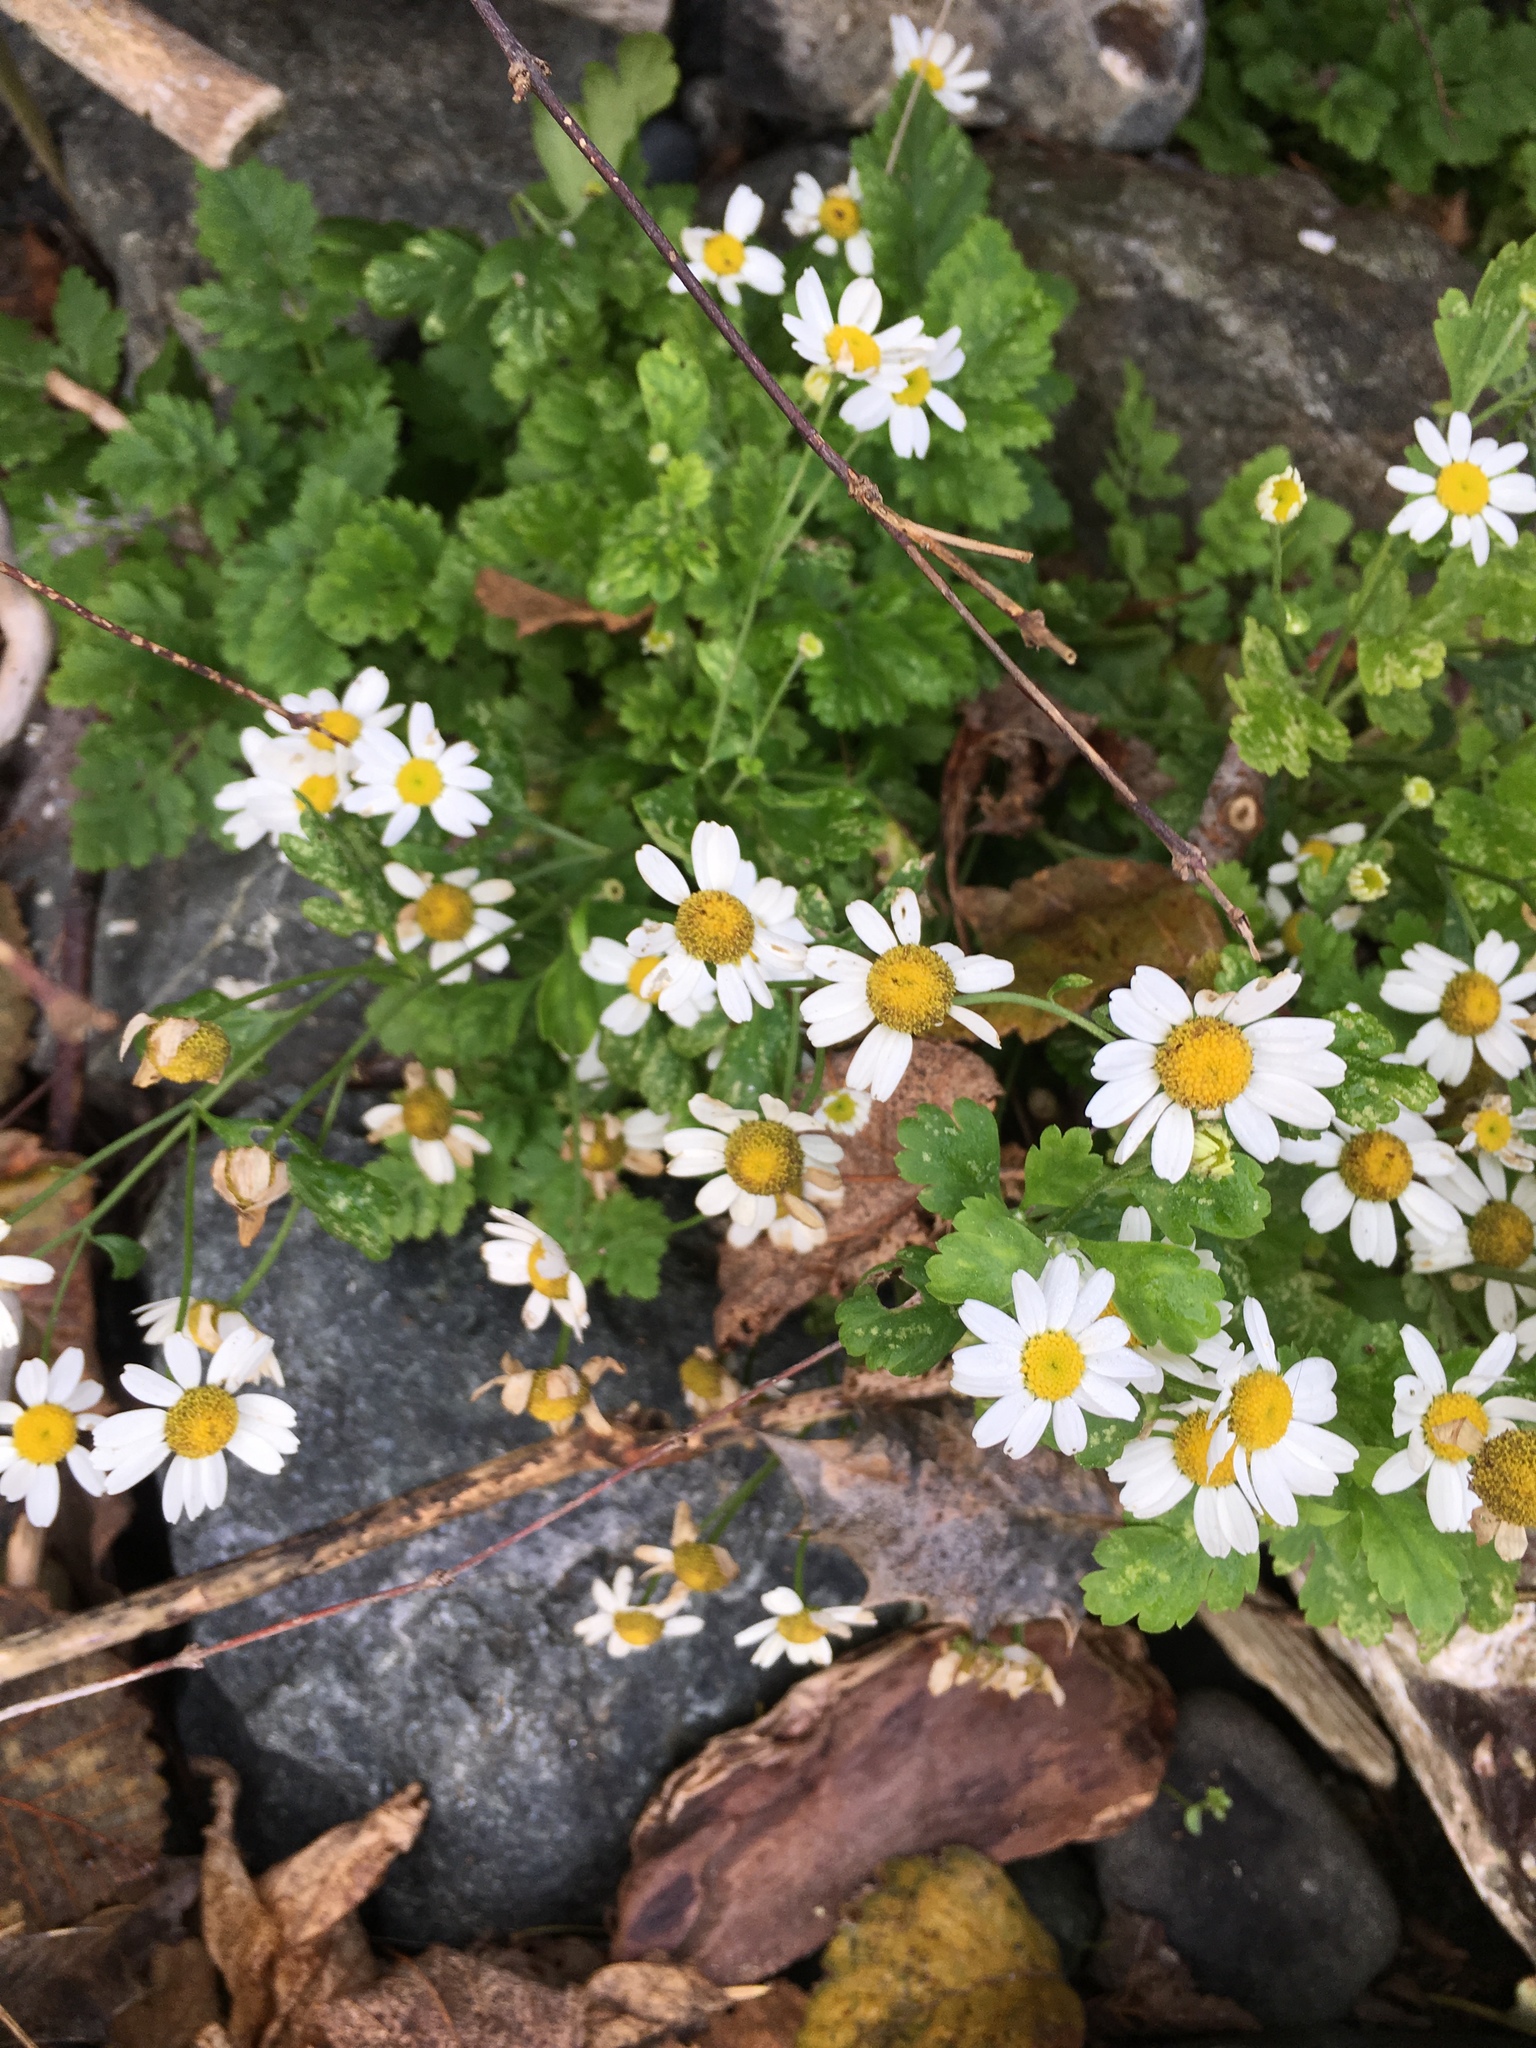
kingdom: Plantae
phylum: Tracheophyta
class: Magnoliopsida
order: Asterales
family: Asteraceae
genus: Tanacetum
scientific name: Tanacetum parthenium
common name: Feverfew
